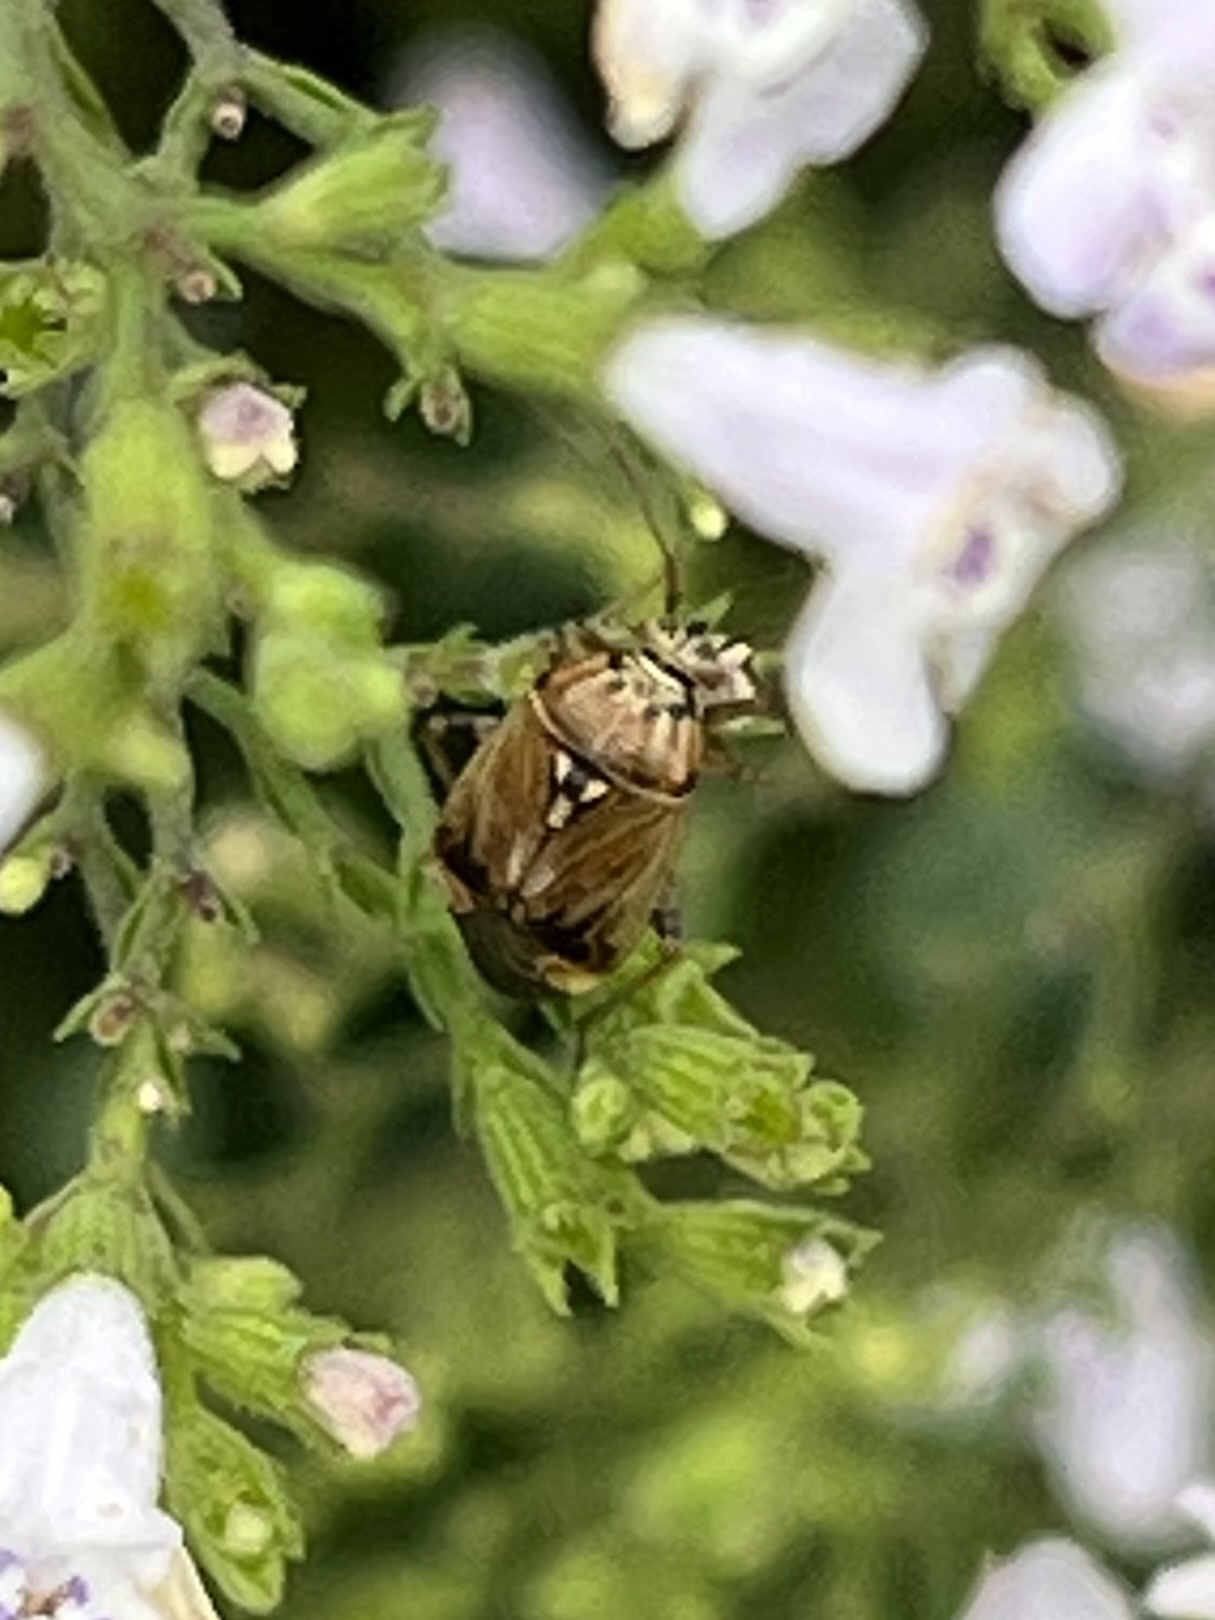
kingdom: Animalia
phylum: Arthropoda
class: Insecta
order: Hemiptera
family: Miridae
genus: Lygus
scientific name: Lygus lineolaris
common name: North american tarnished plant bug
